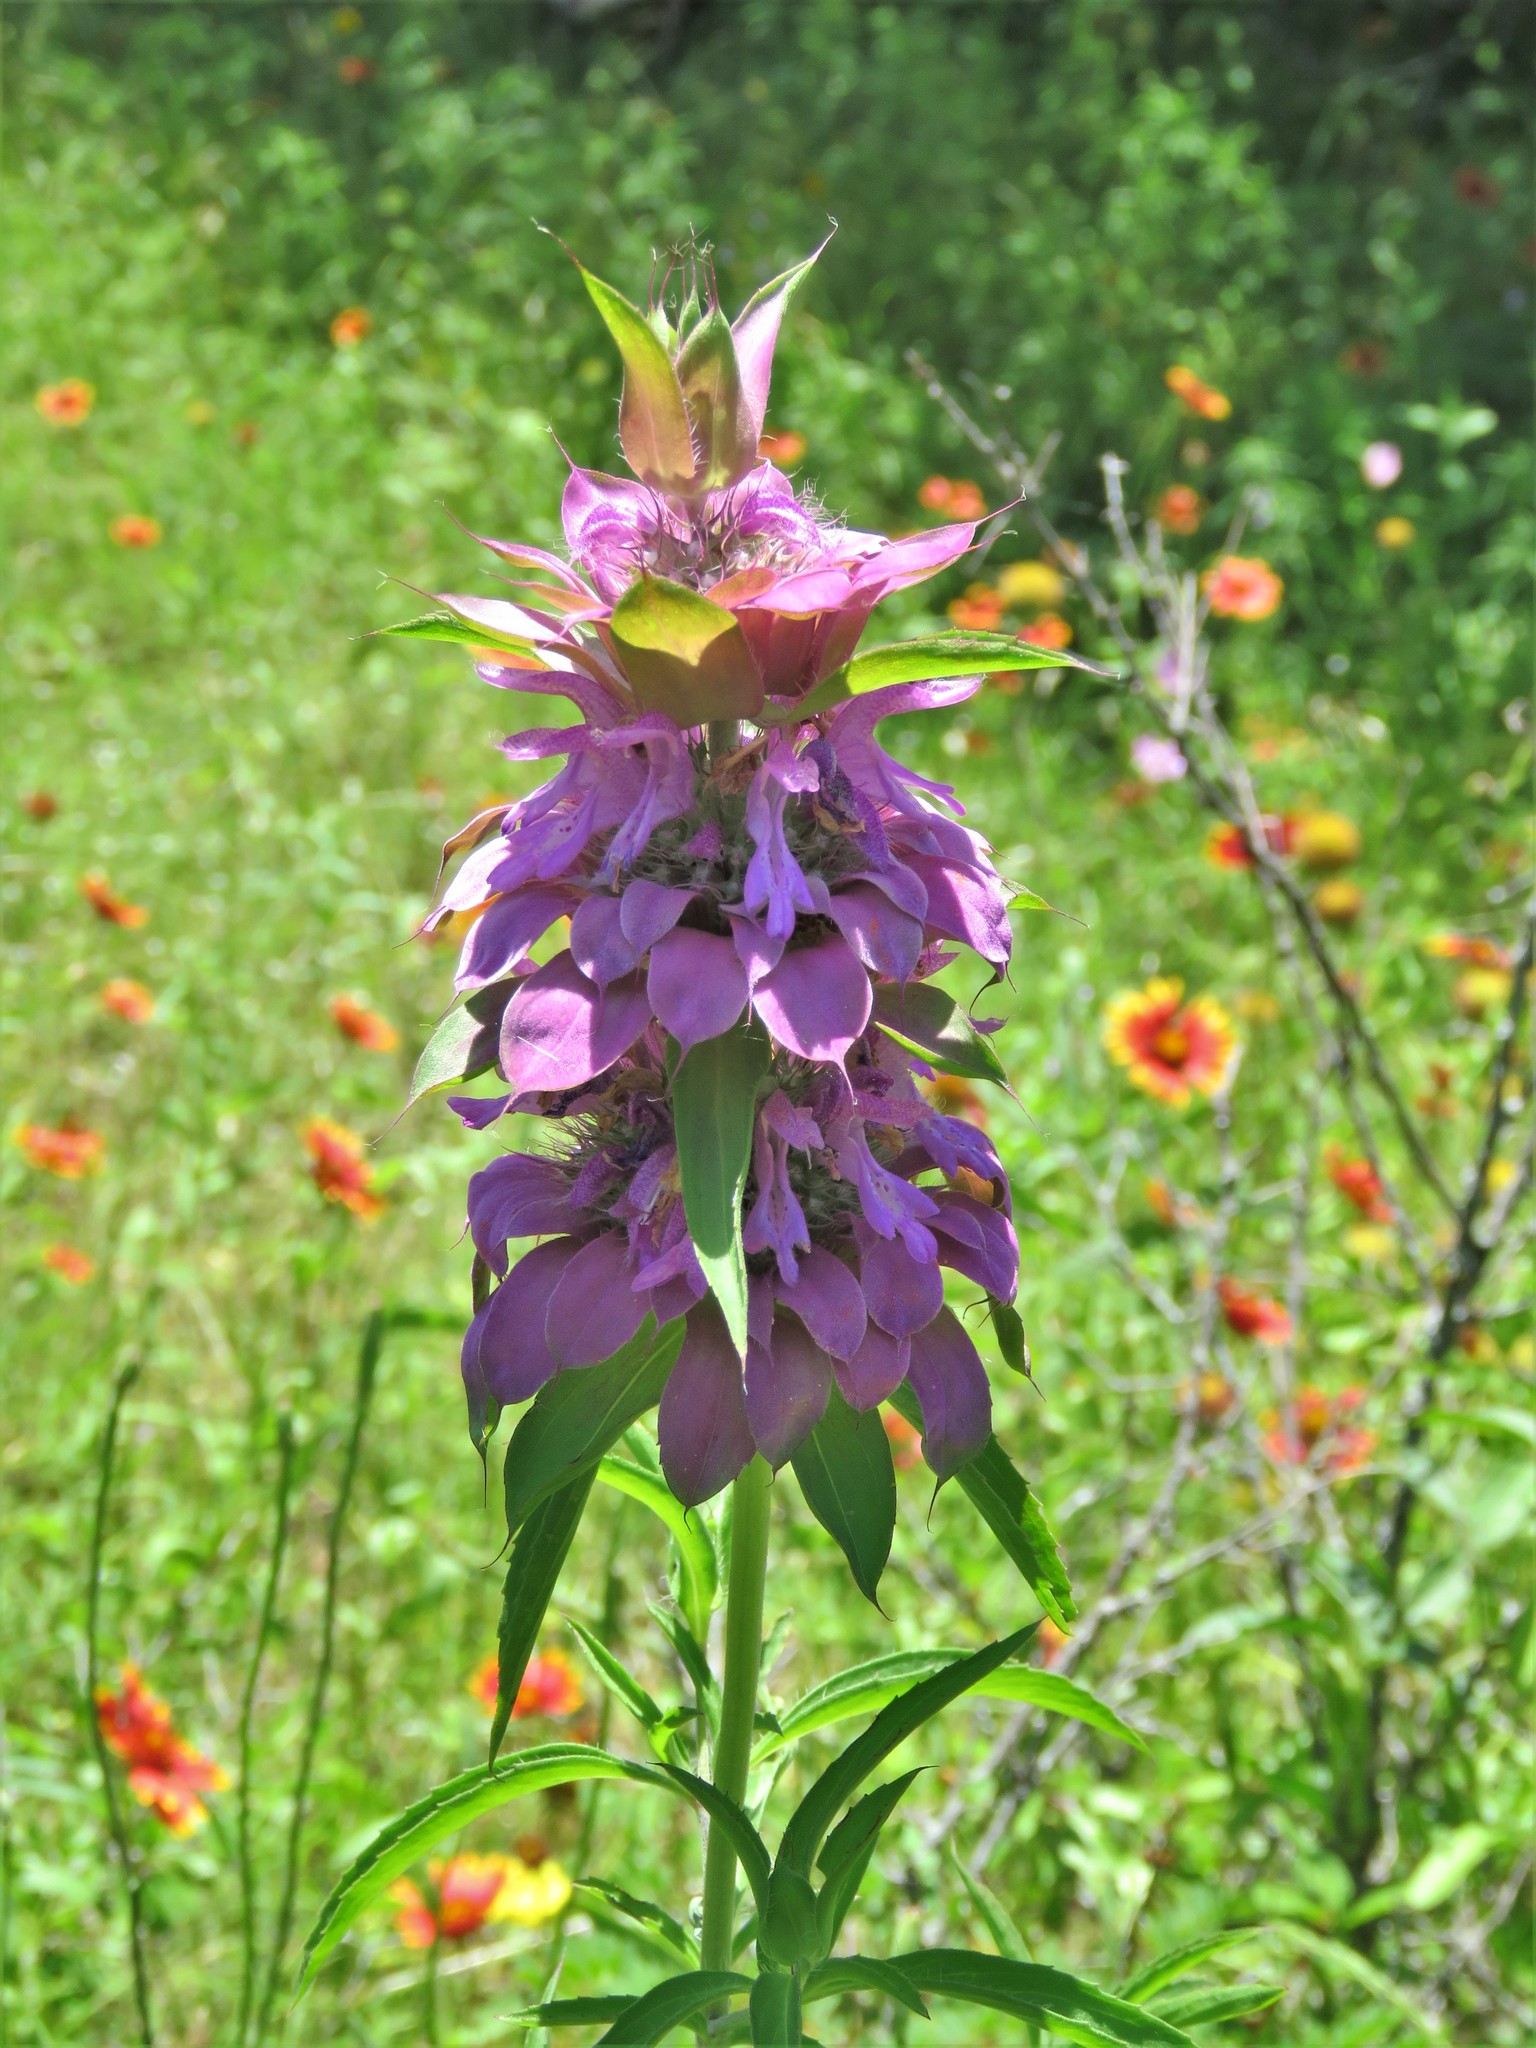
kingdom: Plantae
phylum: Tracheophyta
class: Magnoliopsida
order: Lamiales
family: Lamiaceae
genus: Monarda
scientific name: Monarda citriodora
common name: Lemon beebalm
